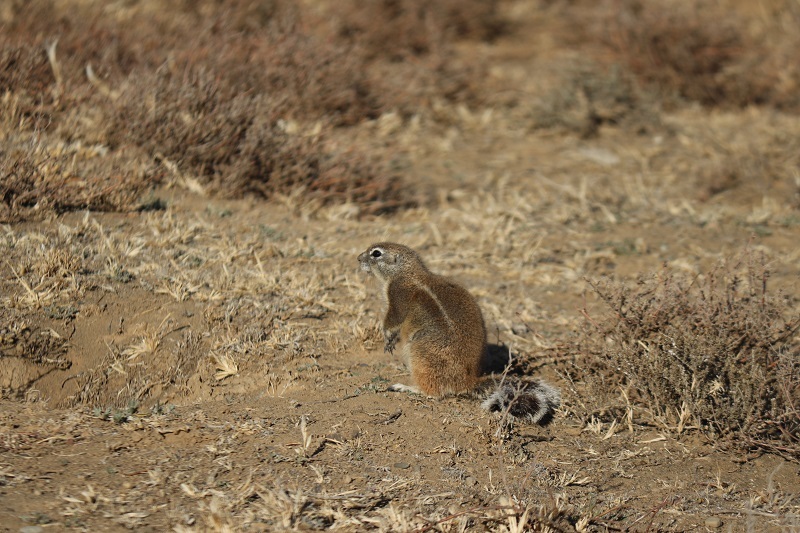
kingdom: Animalia
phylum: Chordata
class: Mammalia
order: Rodentia
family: Sciuridae
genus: Xerus
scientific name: Xerus inauris
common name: South african ground squirrel
